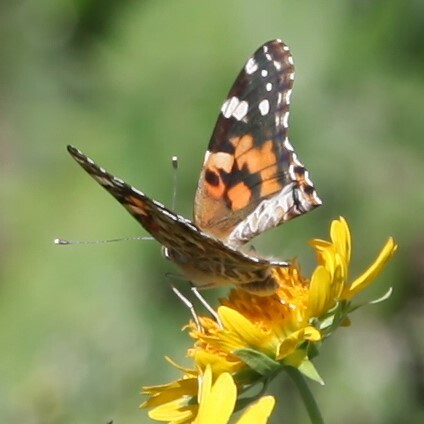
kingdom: Animalia
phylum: Arthropoda
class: Insecta
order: Lepidoptera
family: Nymphalidae
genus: Vanessa
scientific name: Vanessa cardui
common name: Painted lady
